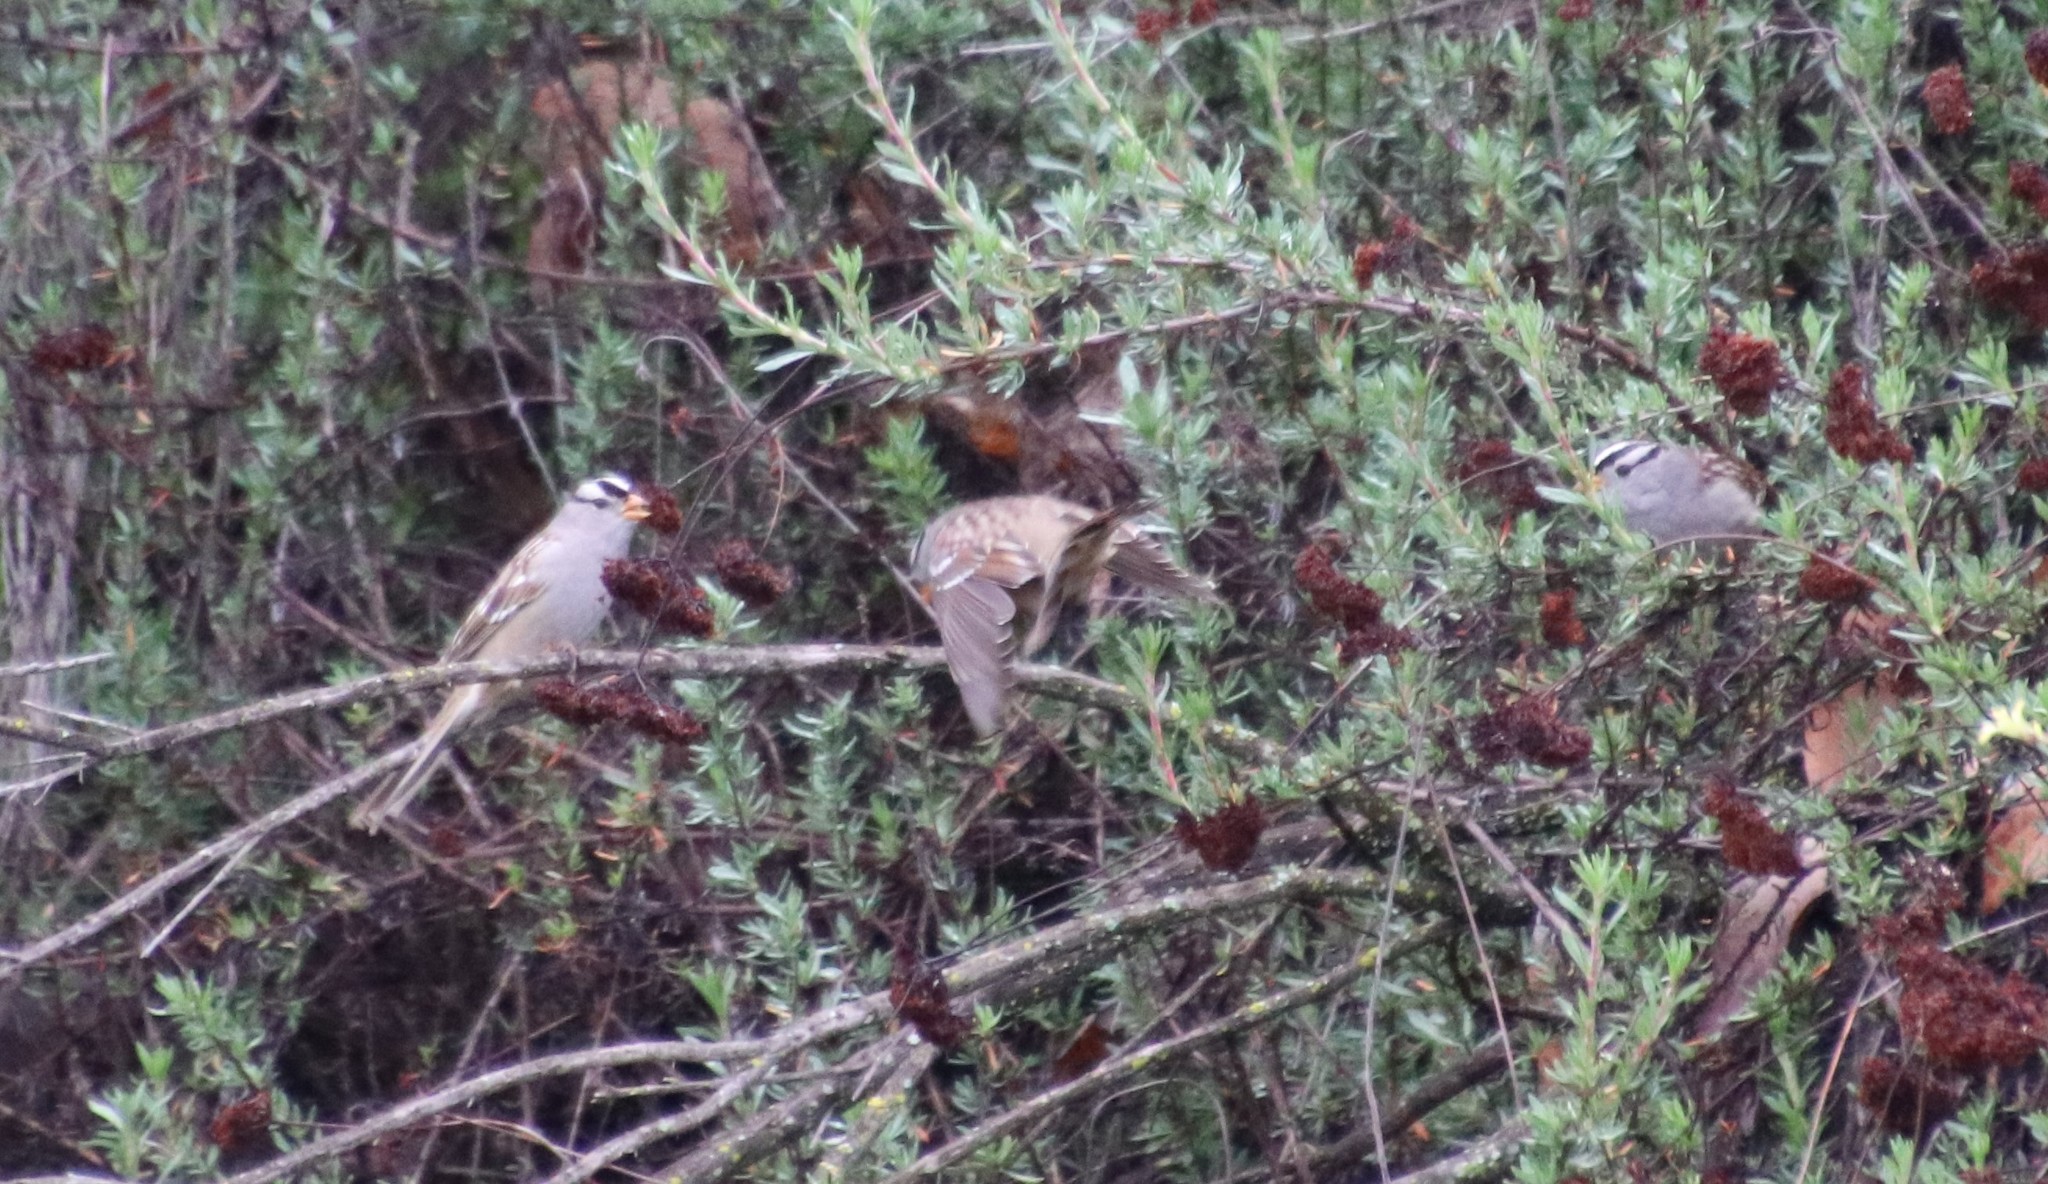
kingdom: Animalia
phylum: Chordata
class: Aves
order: Passeriformes
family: Passerellidae
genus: Zonotrichia
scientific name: Zonotrichia leucophrys
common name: White-crowned sparrow
